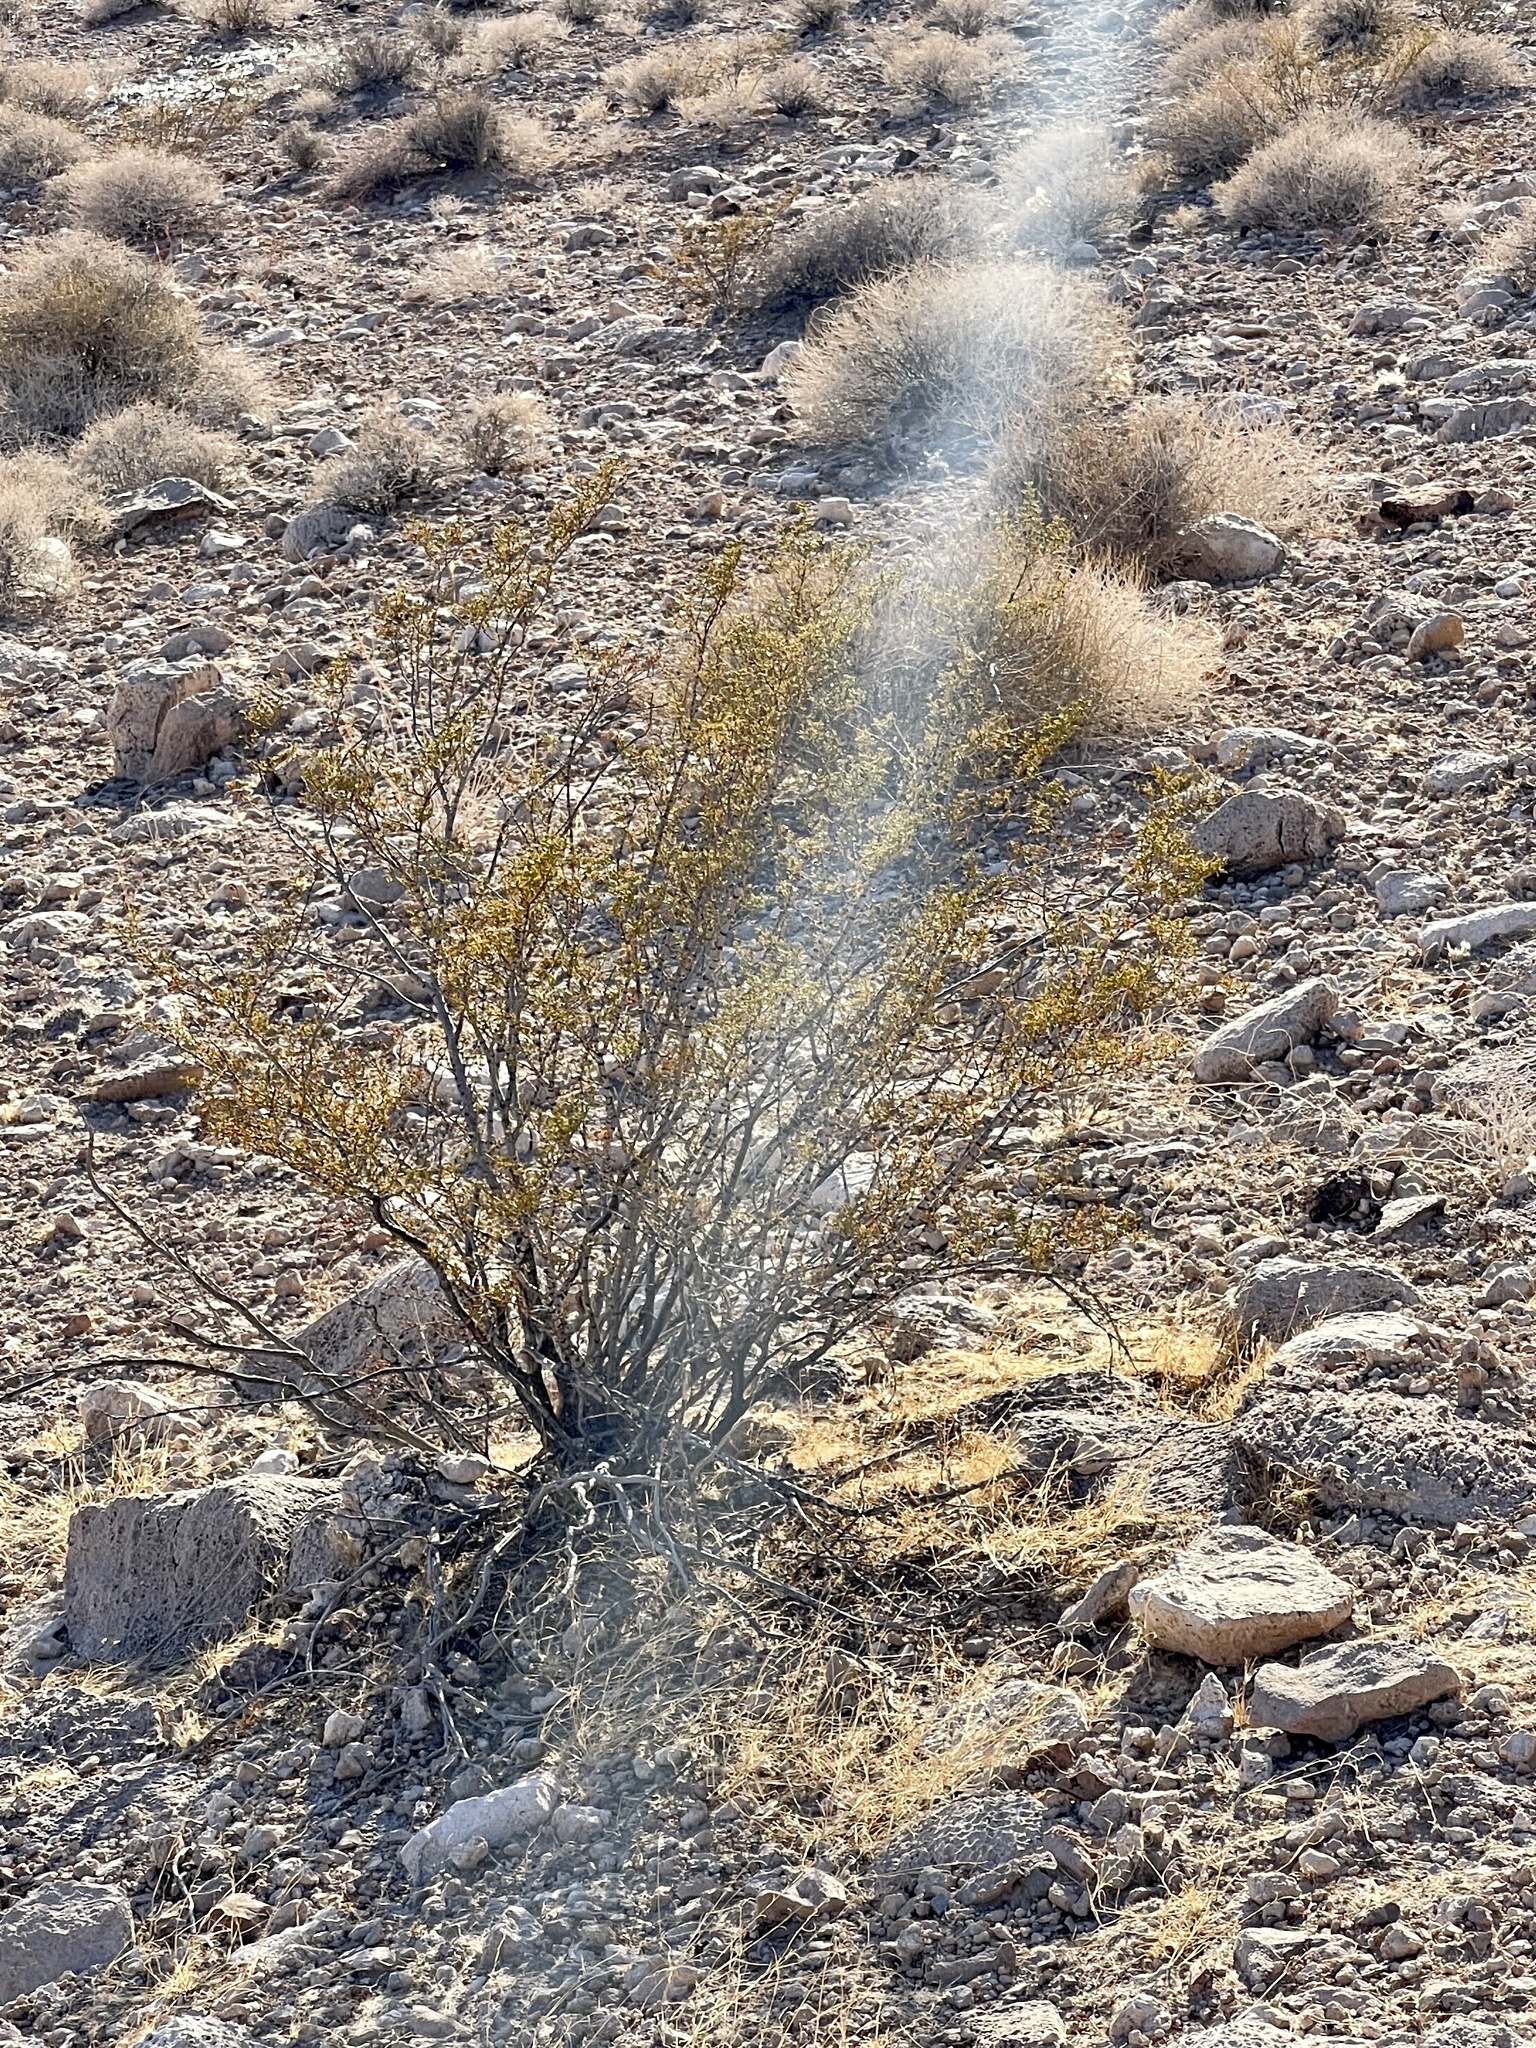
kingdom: Plantae
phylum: Tracheophyta
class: Magnoliopsida
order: Zygophyllales
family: Zygophyllaceae
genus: Larrea
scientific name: Larrea tridentata
